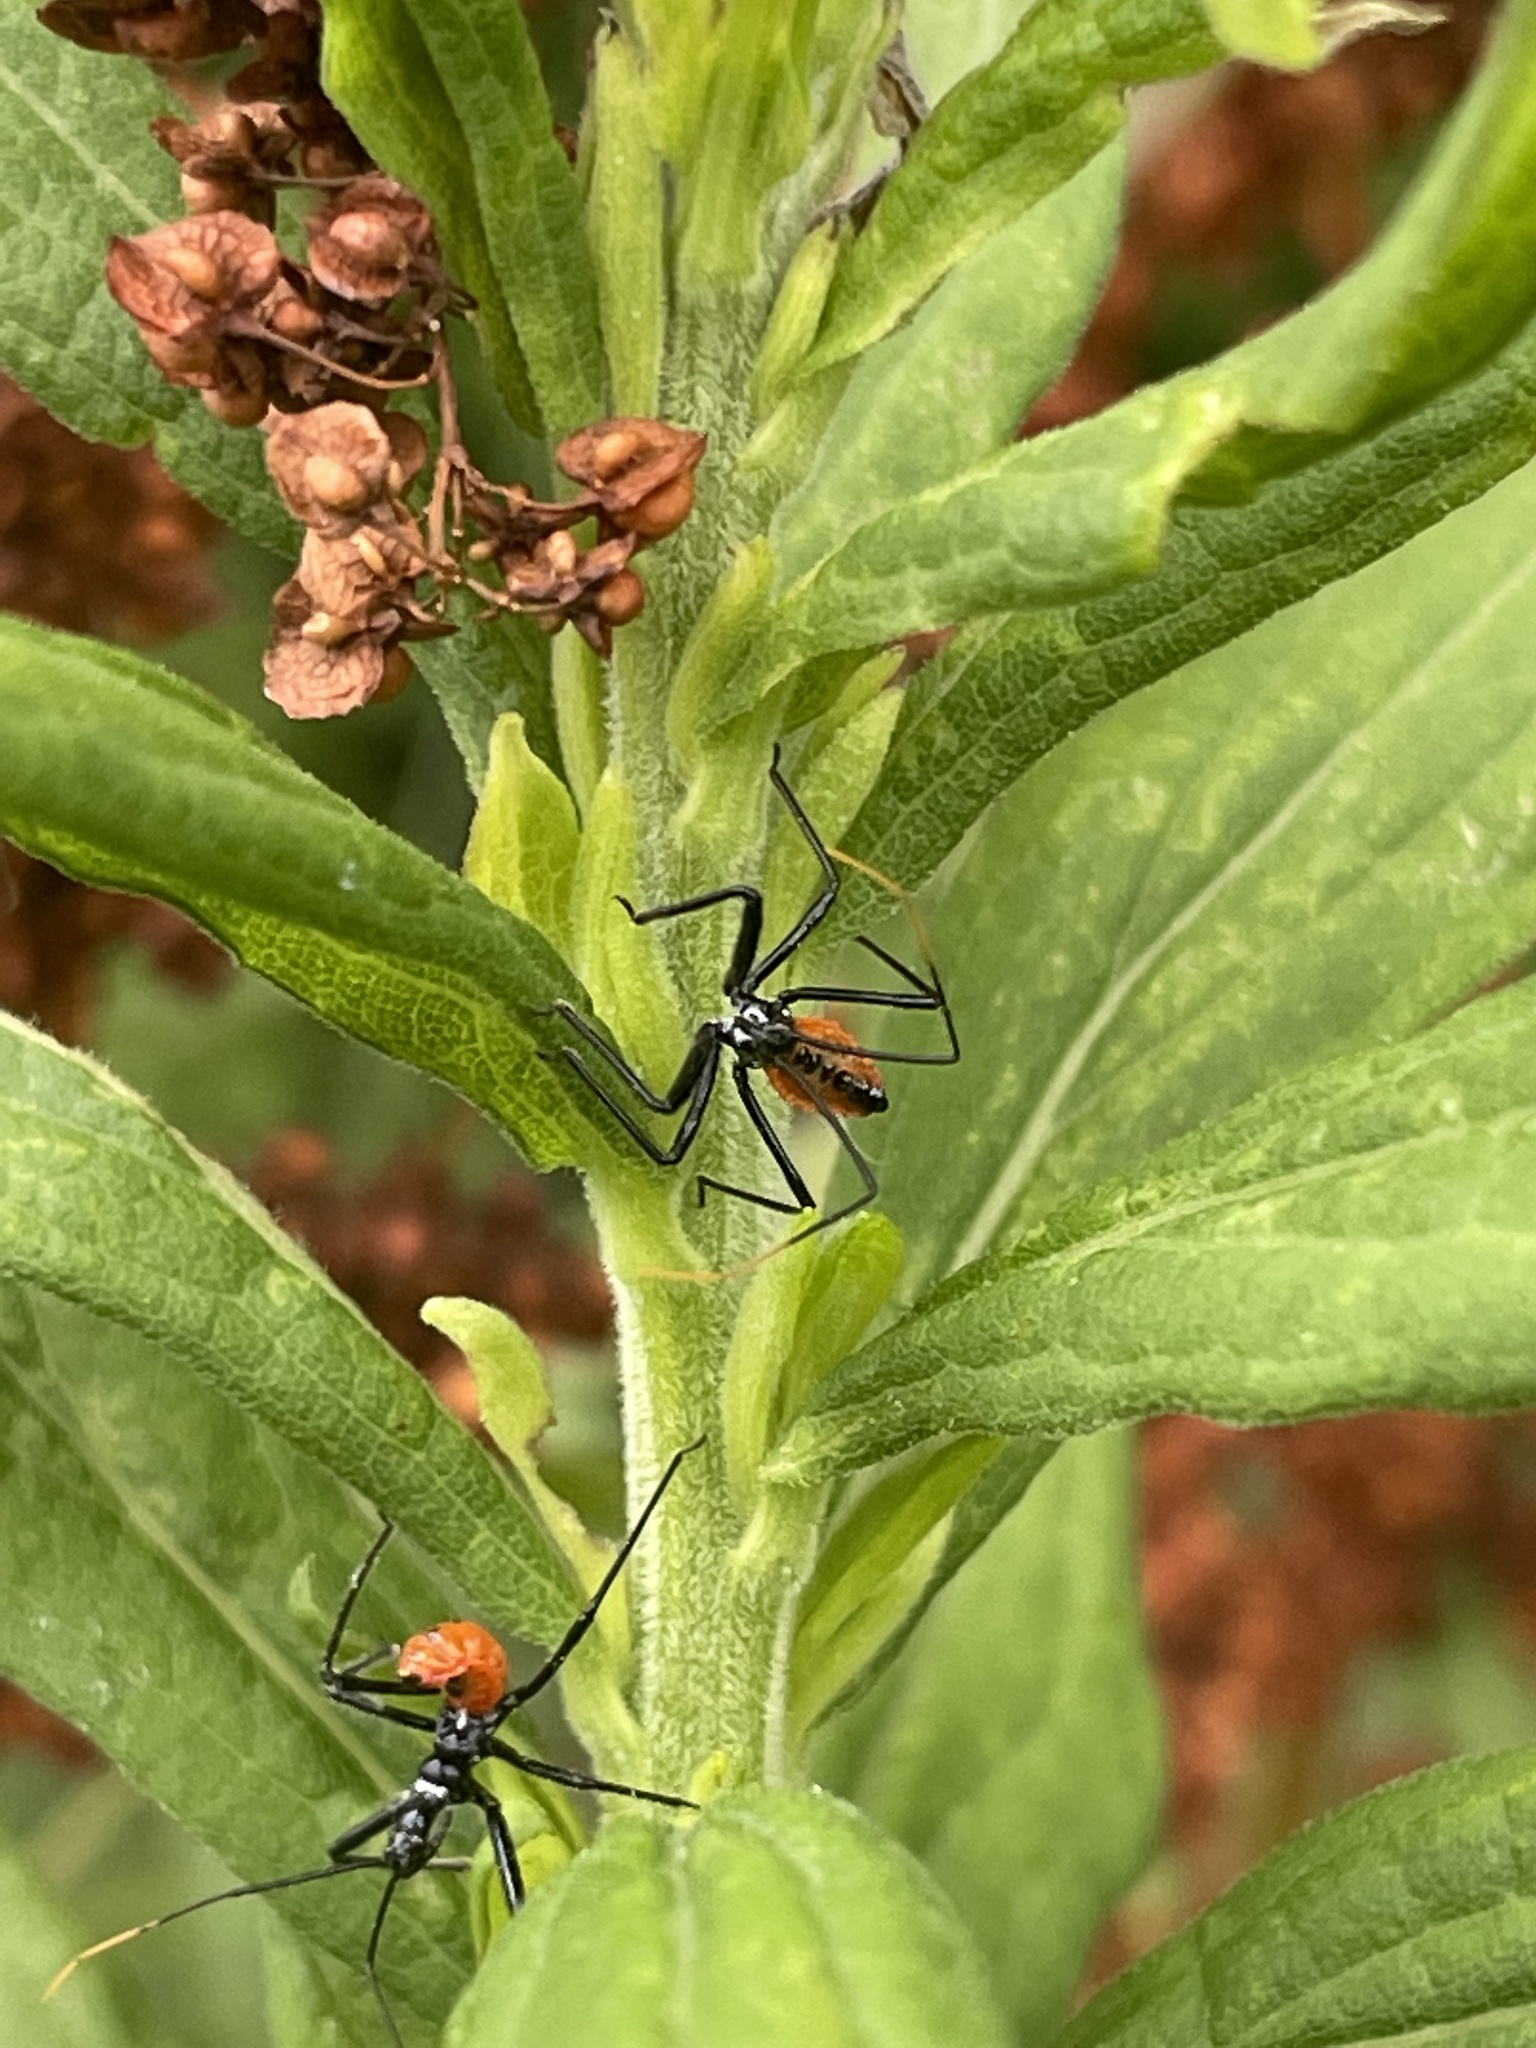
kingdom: Animalia
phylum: Arthropoda
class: Insecta
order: Hemiptera
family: Reduviidae
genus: Arilus
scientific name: Arilus cristatus
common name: North american wheel bug
